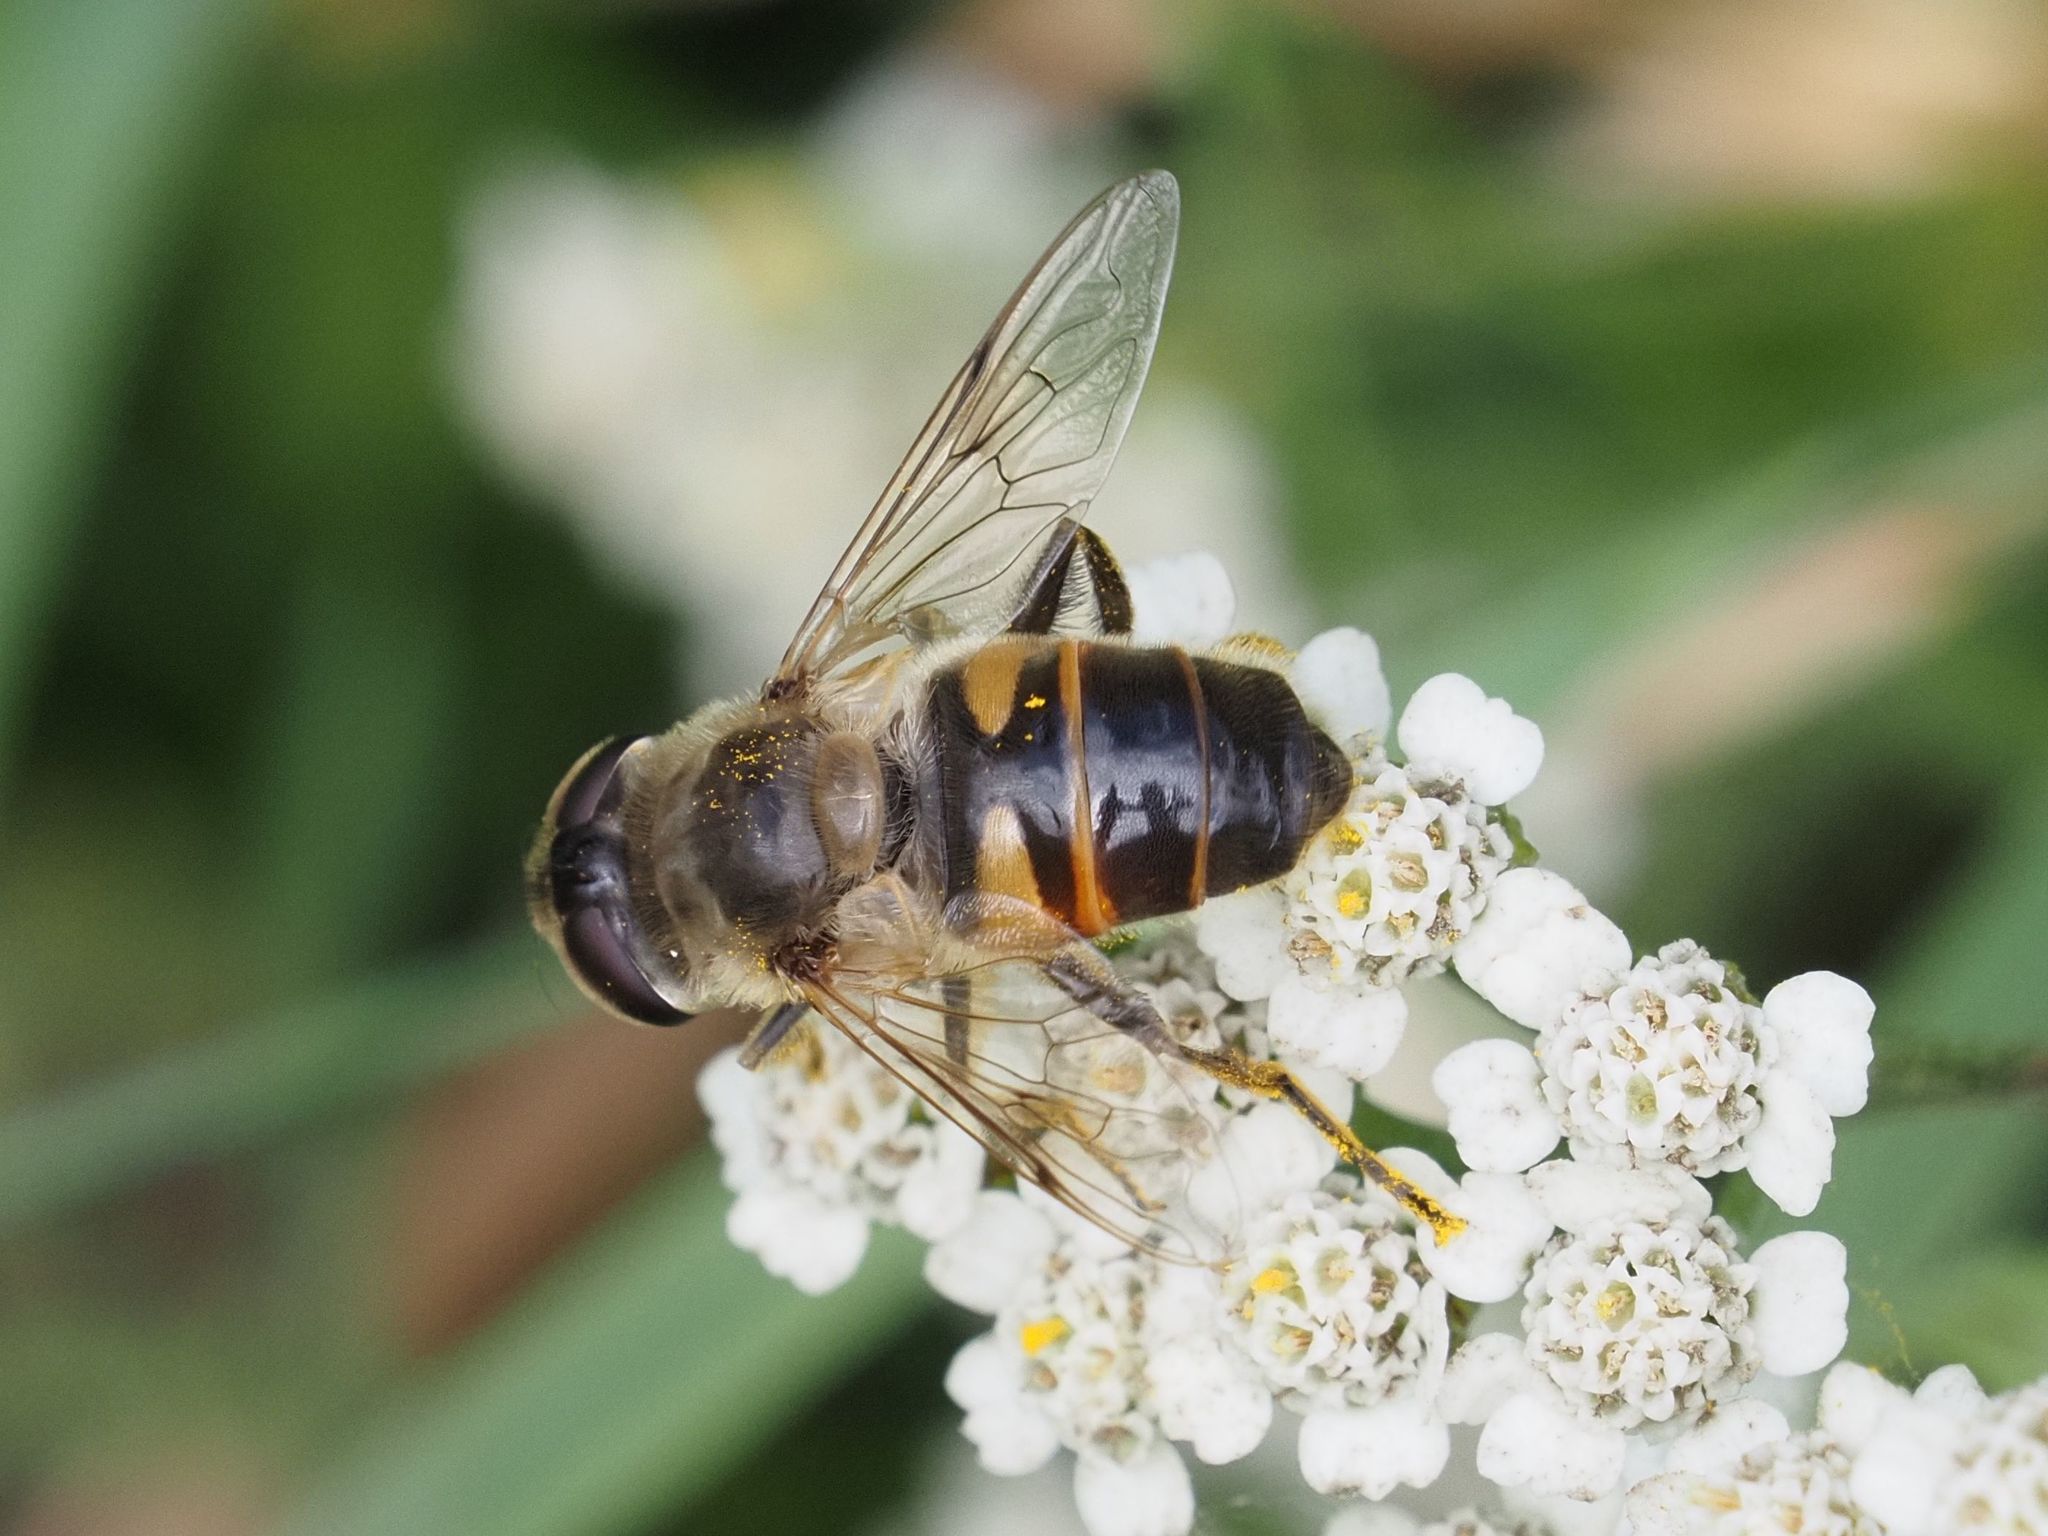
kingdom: Animalia
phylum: Arthropoda
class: Insecta
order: Diptera
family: Syrphidae
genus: Eristalis
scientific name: Eristalis tenax
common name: Drone fly
